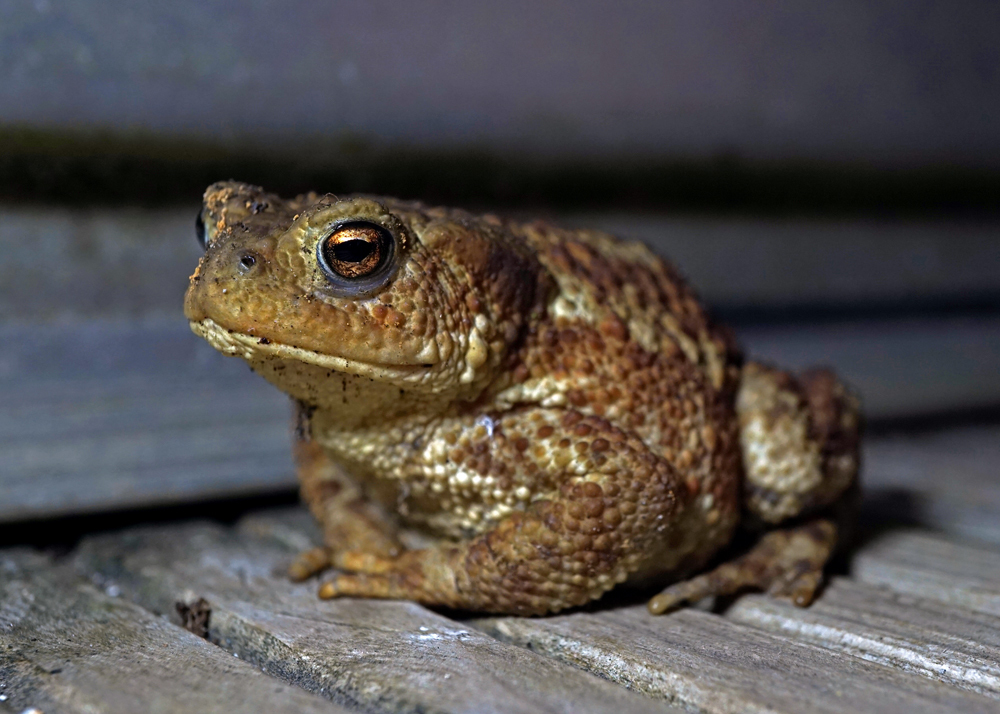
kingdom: Animalia
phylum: Chordata
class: Amphibia
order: Anura
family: Bufonidae
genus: Bufo
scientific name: Bufo bufo
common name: Common toad
